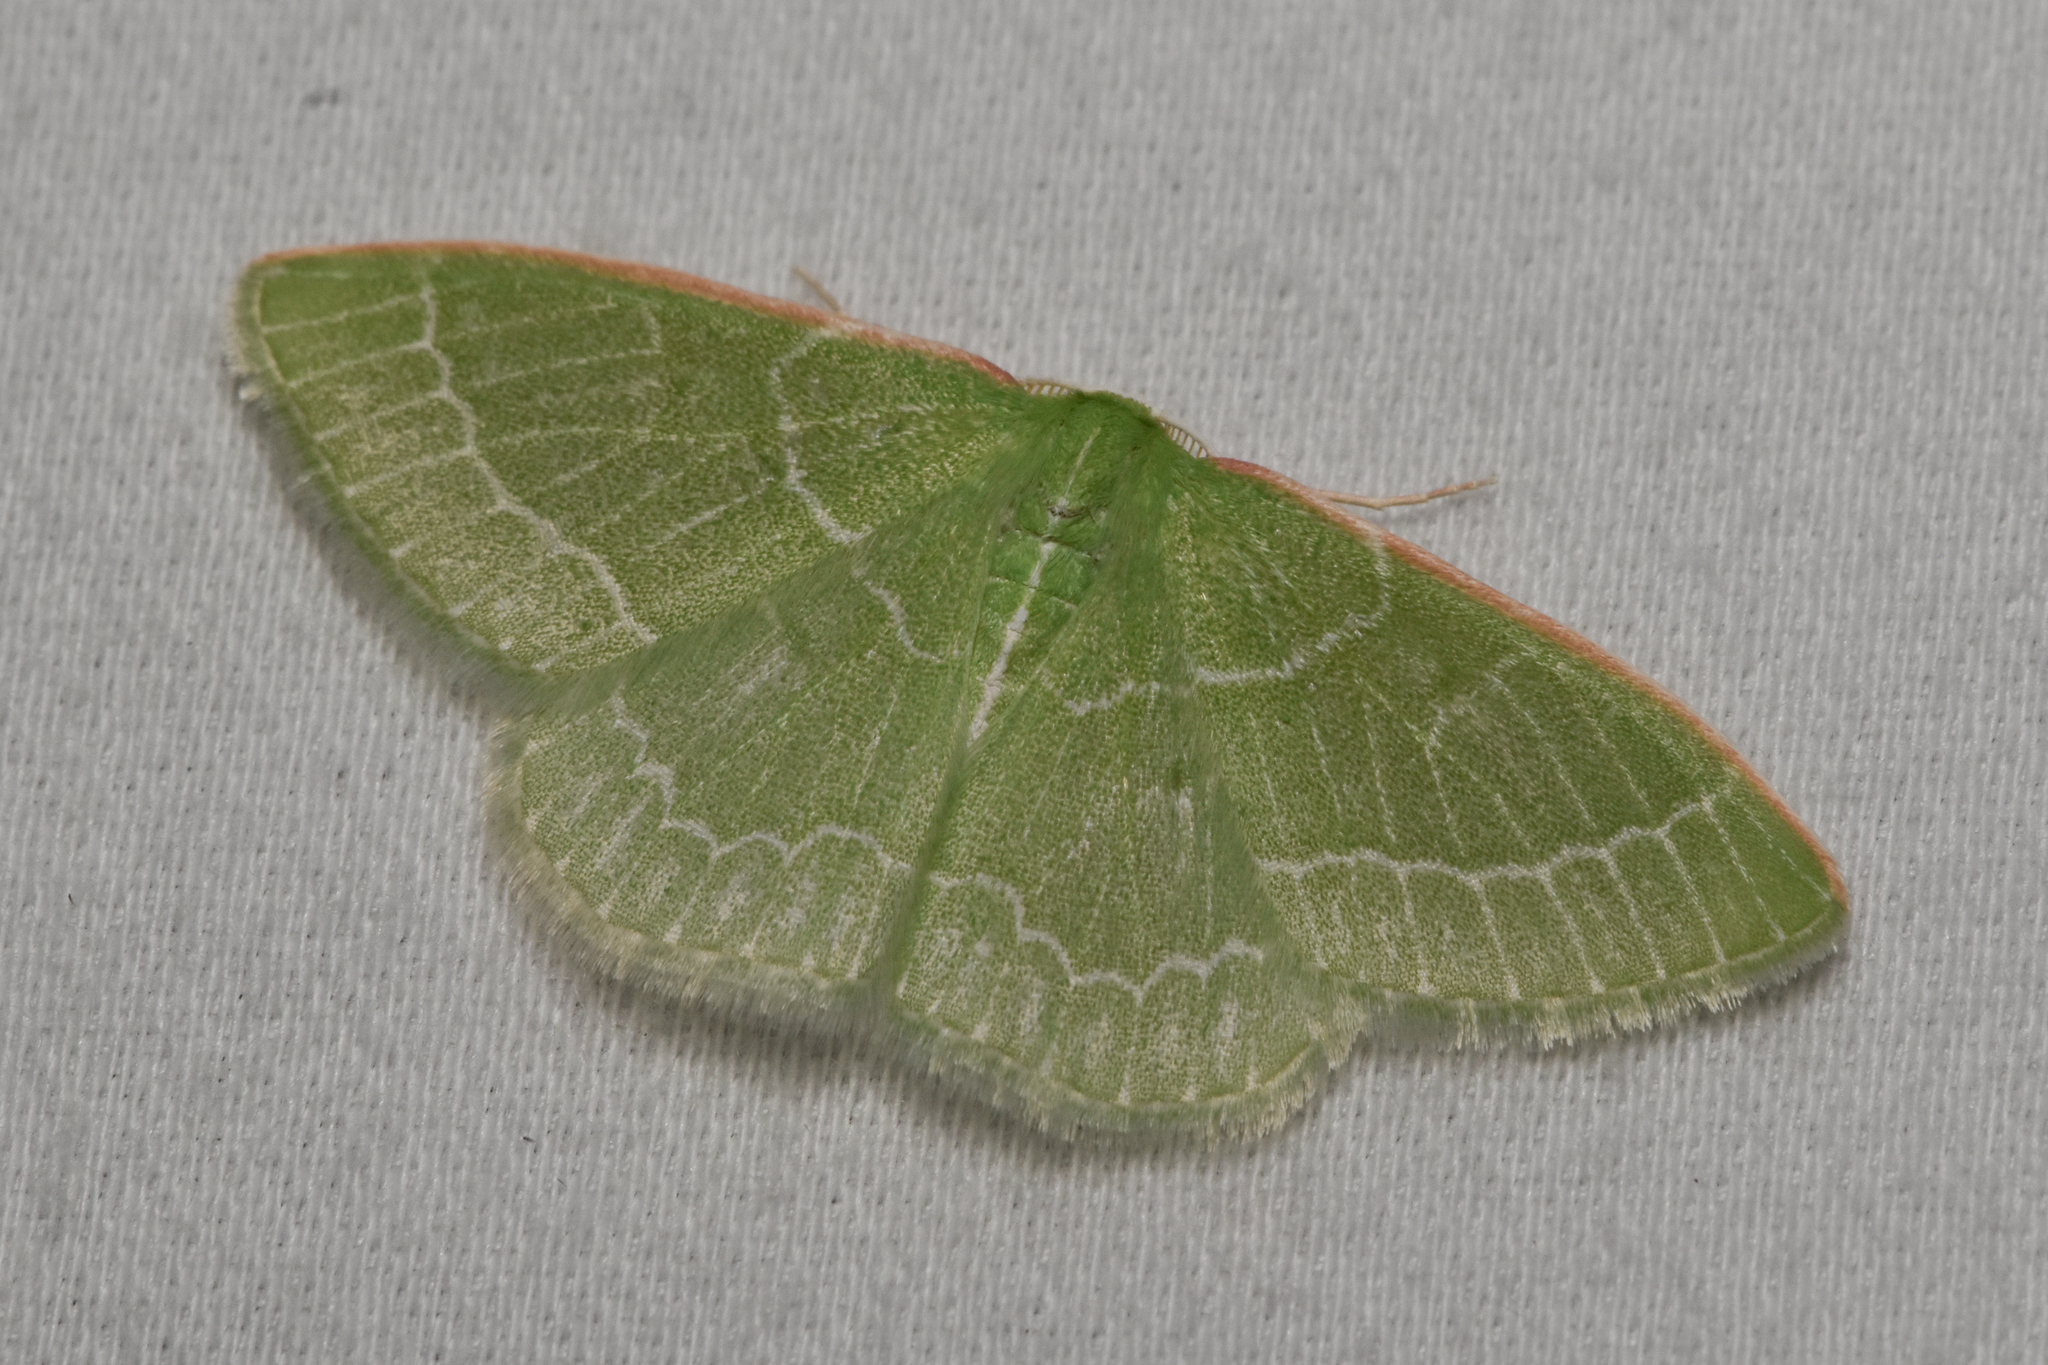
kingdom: Animalia
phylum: Arthropoda
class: Insecta
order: Lepidoptera
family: Geometridae
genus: Synchlora
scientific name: Synchlora aerata
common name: Wavy-lined emerald
